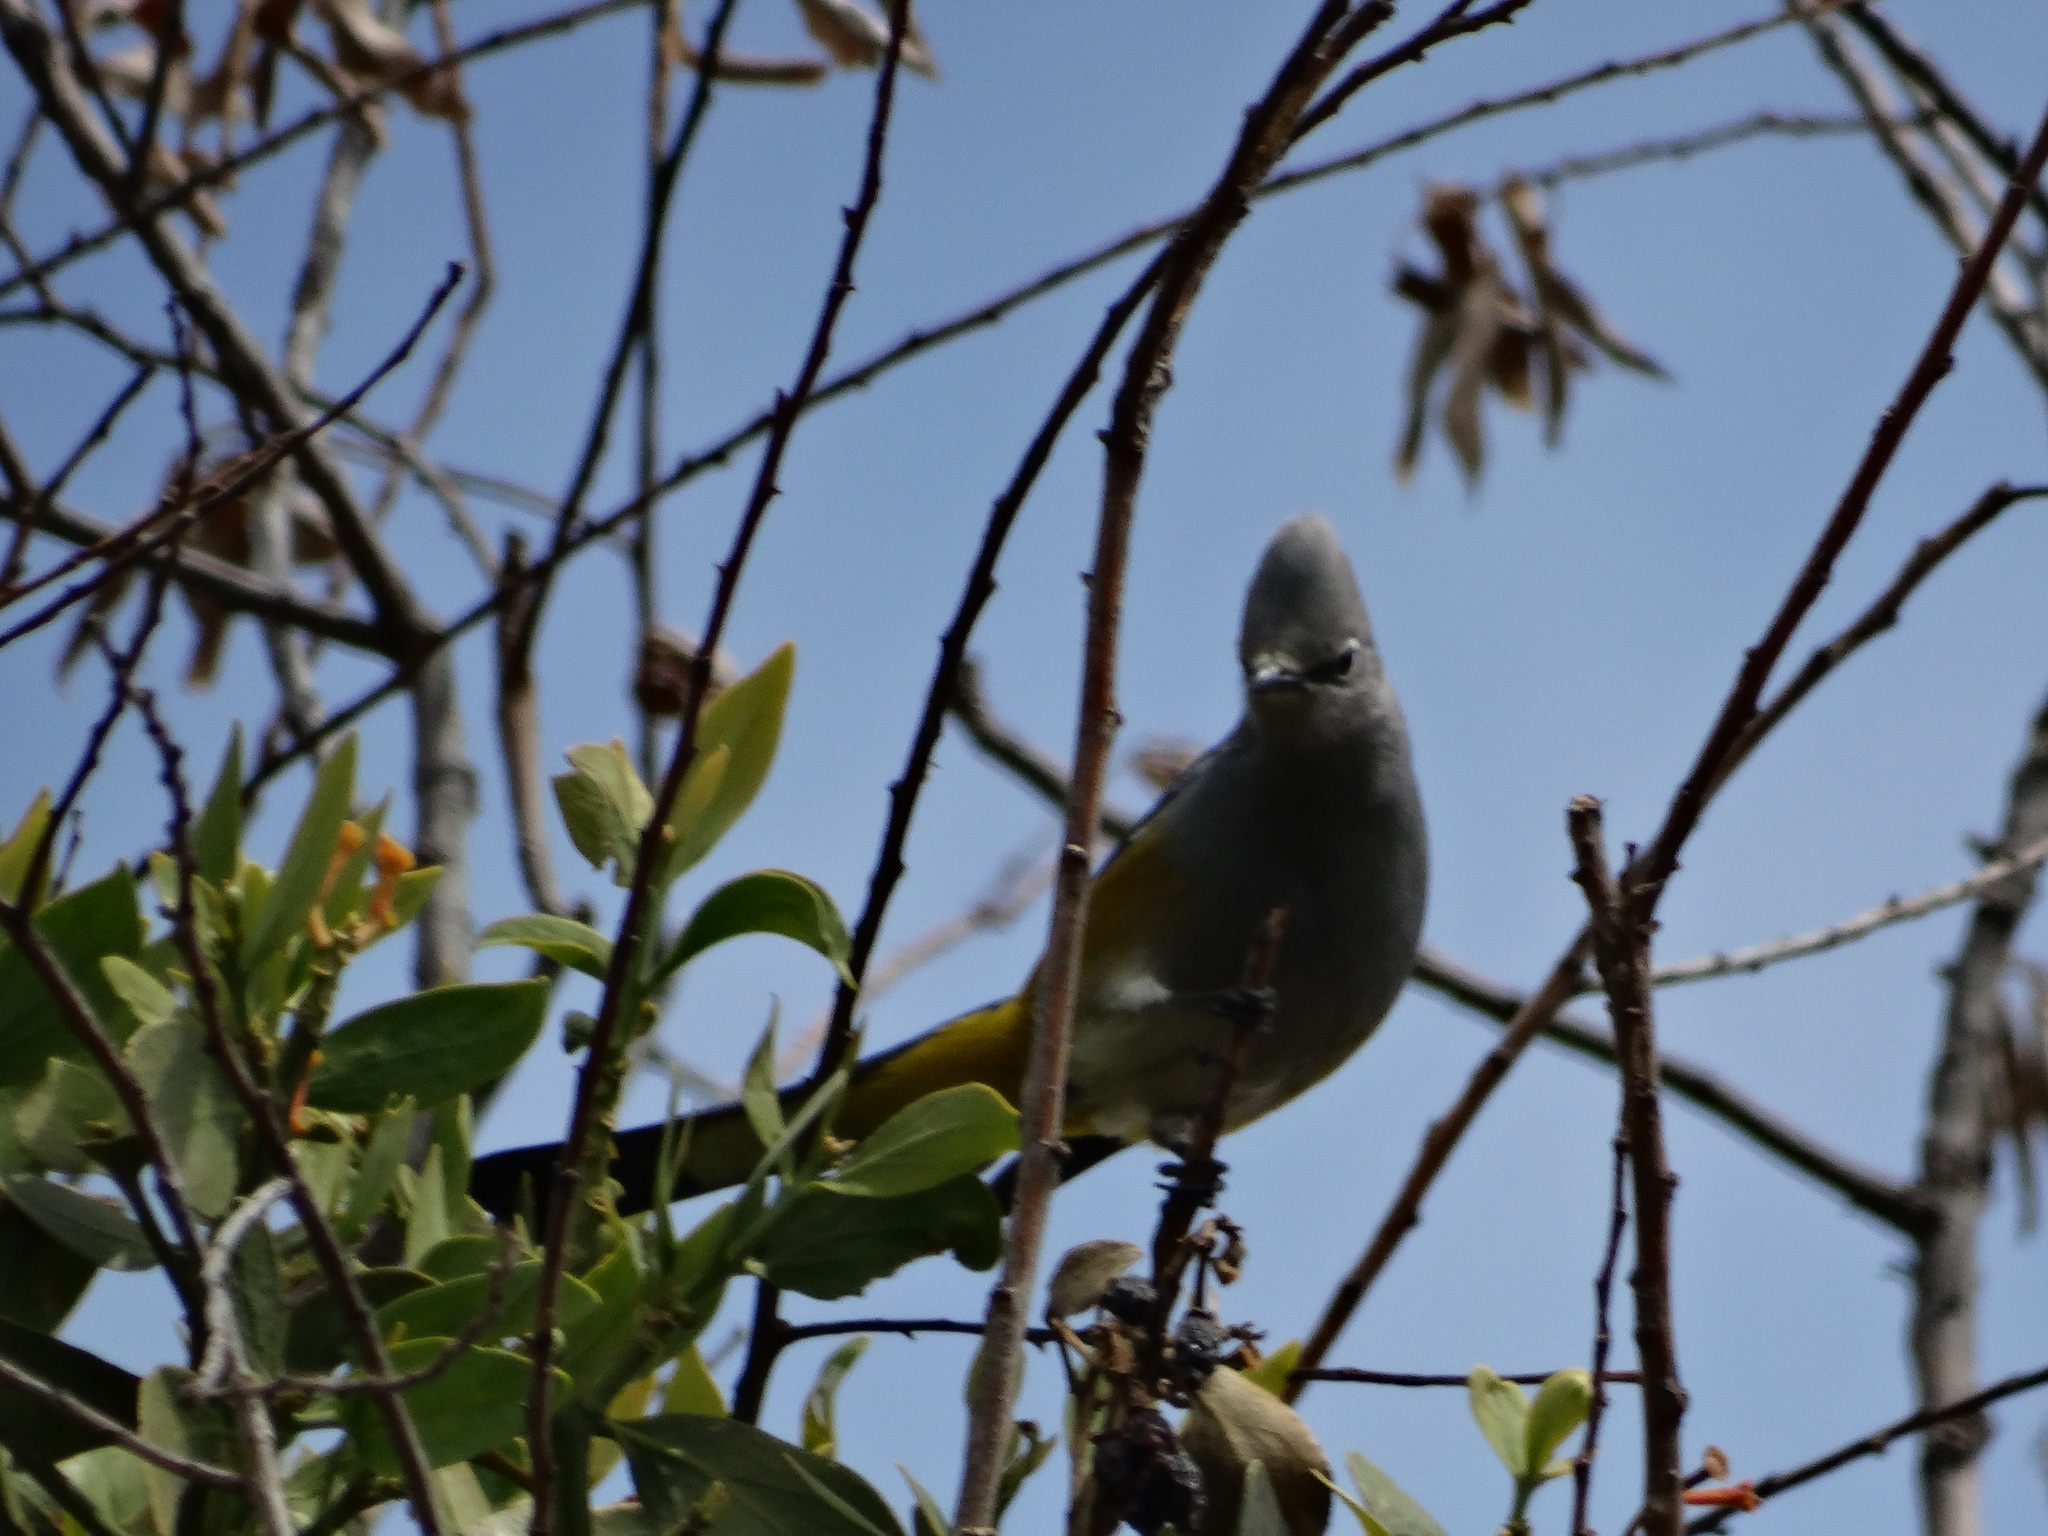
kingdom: Animalia
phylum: Chordata
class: Aves
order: Passeriformes
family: Ptilogonatidae
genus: Ptilogonys
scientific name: Ptilogonys cinereus
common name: Gray silky-flycatcher
